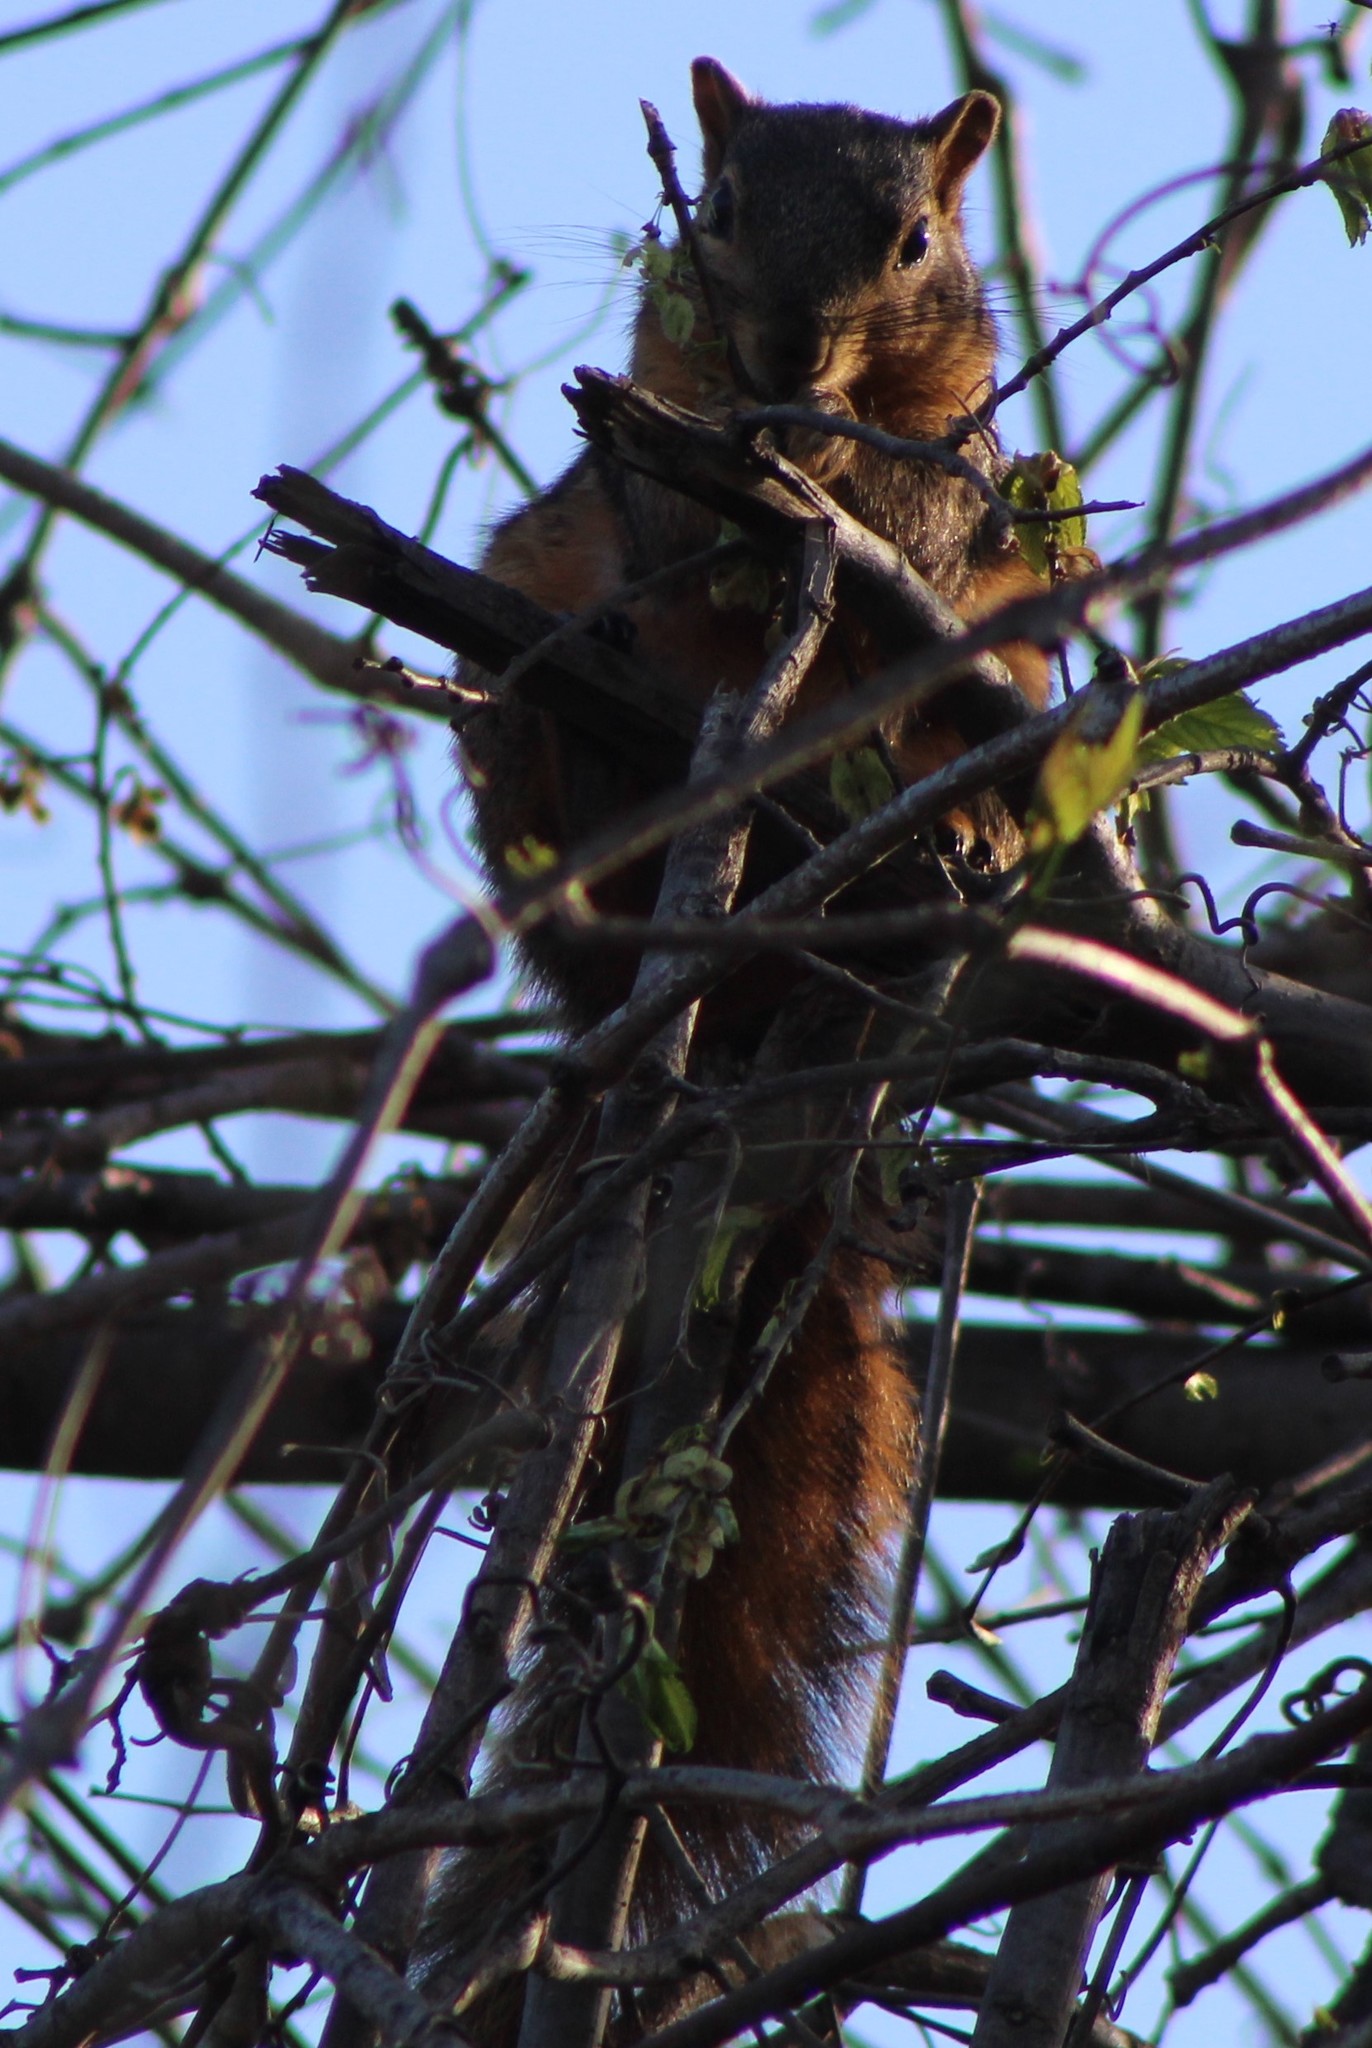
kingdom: Animalia
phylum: Chordata
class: Mammalia
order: Rodentia
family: Sciuridae
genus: Sciurus
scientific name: Sciurus niger
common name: Fox squirrel
